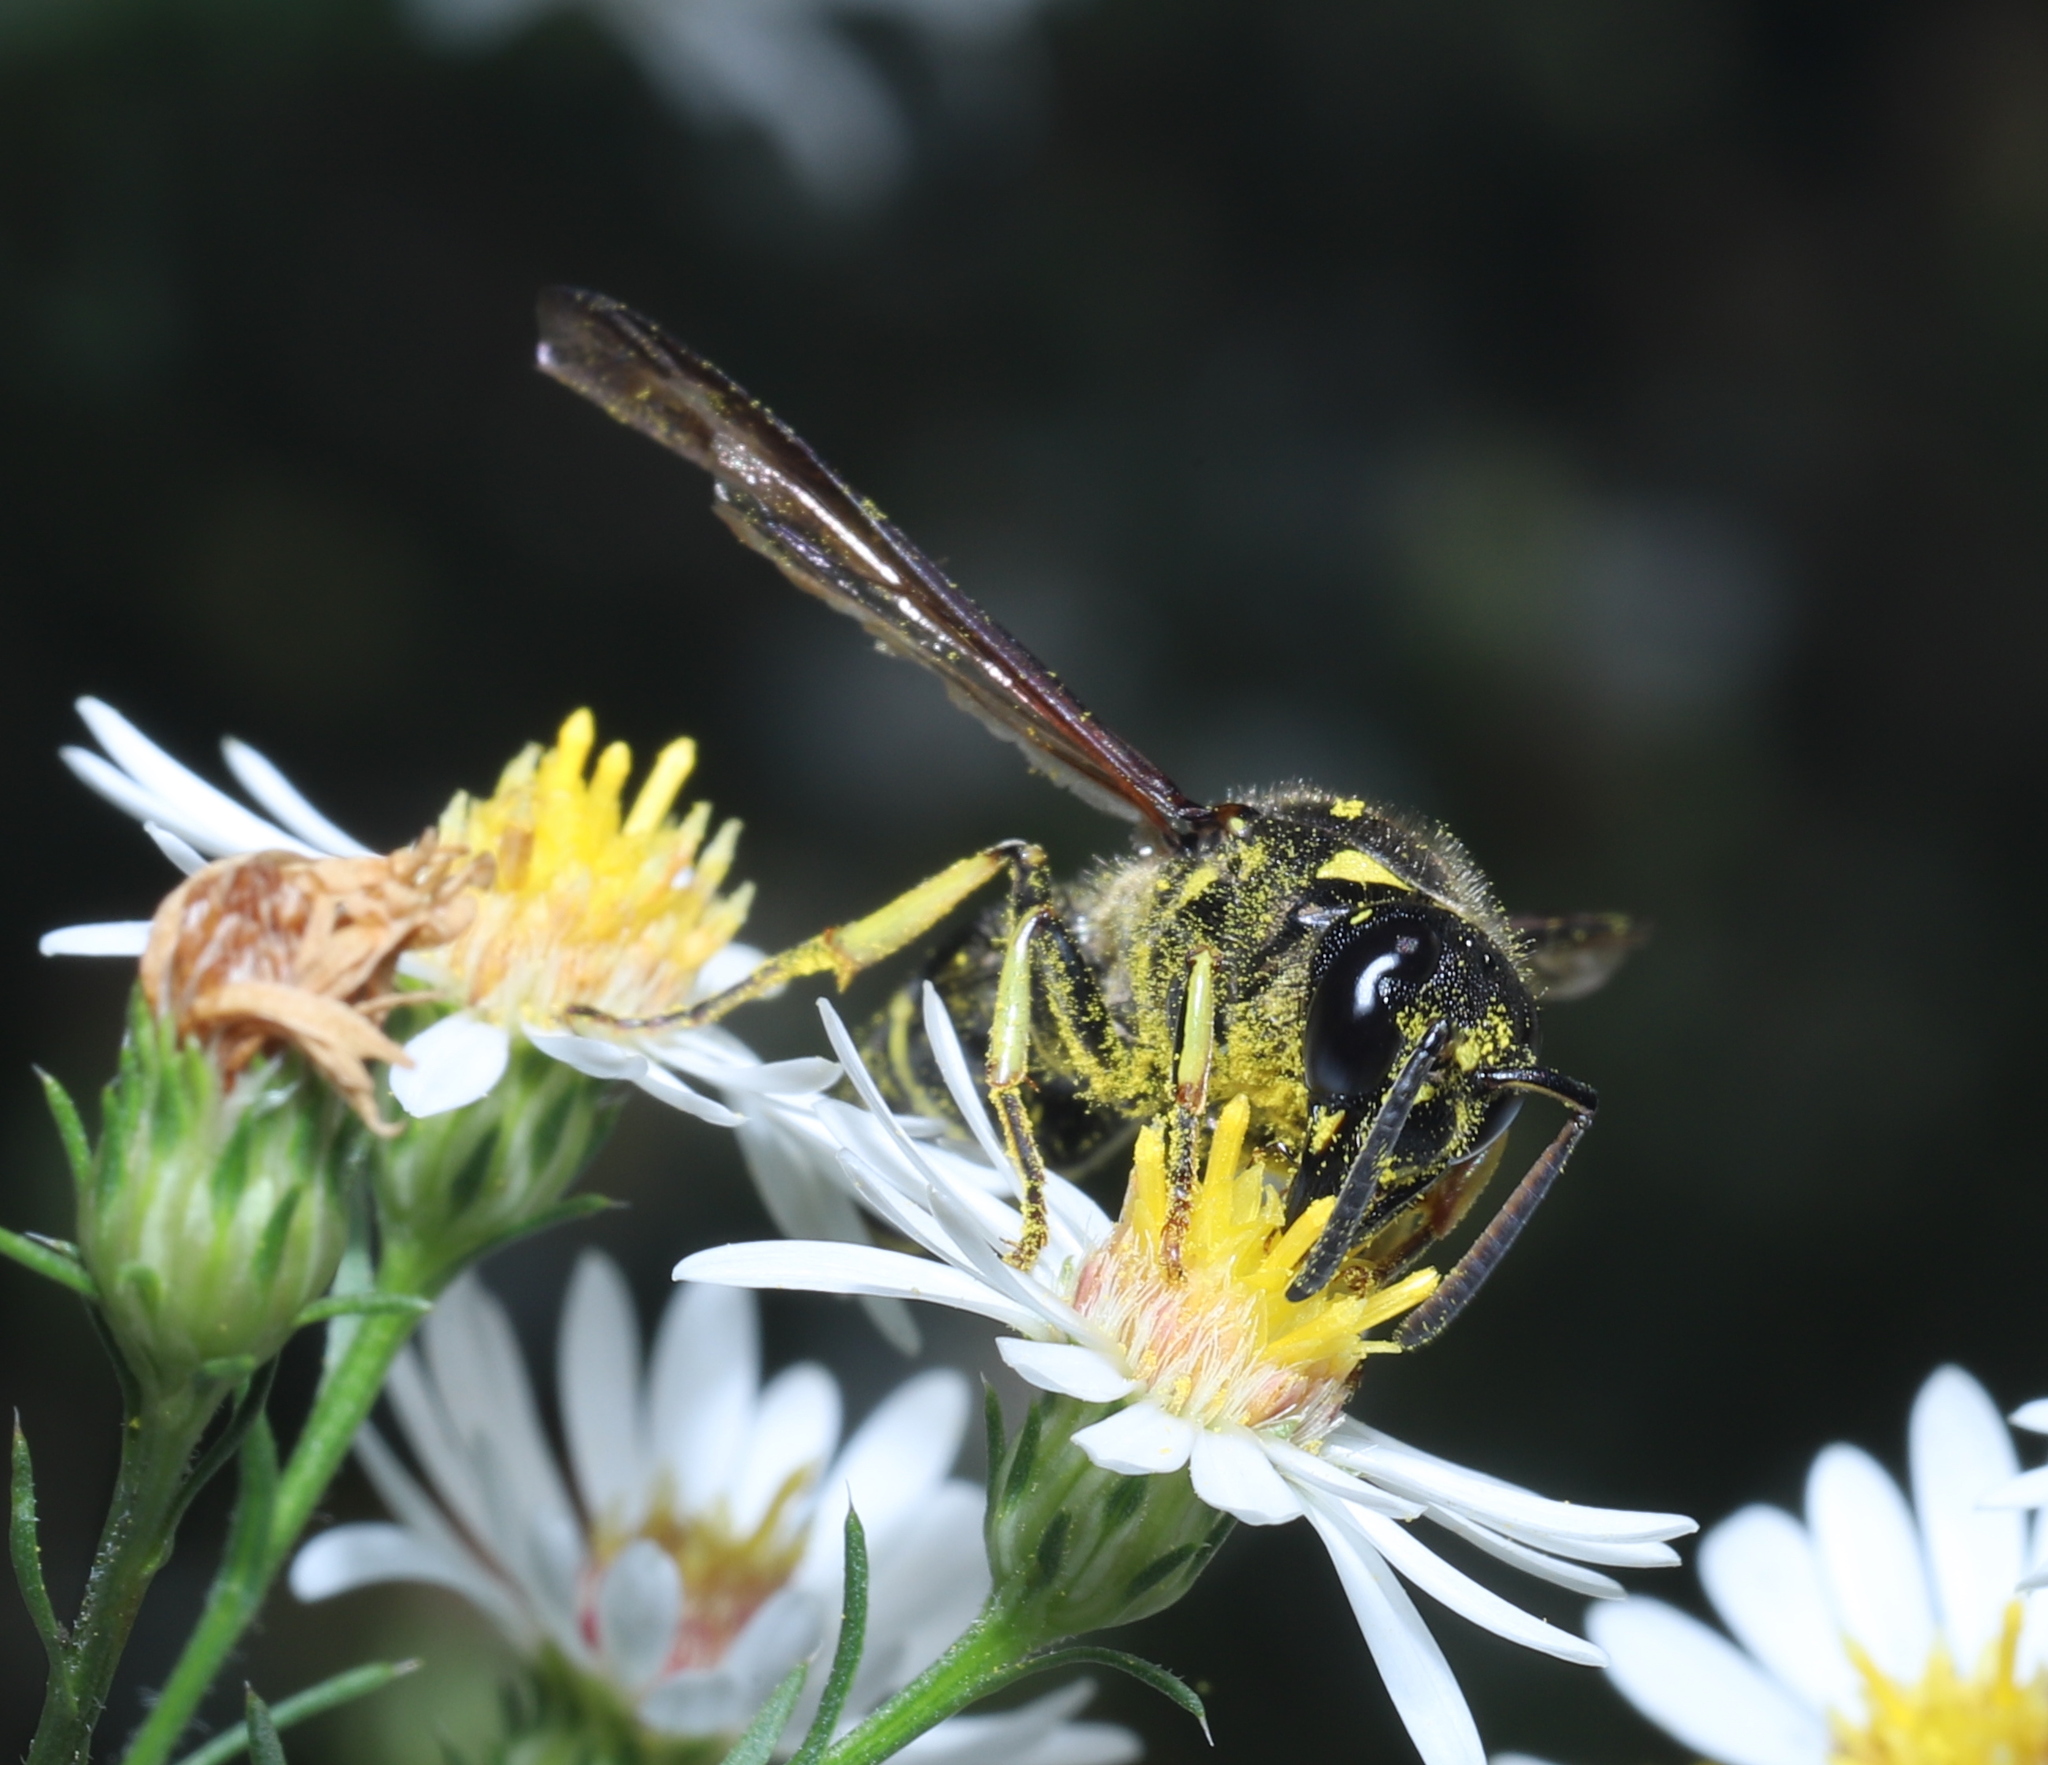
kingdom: Animalia
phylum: Arthropoda
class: Insecta
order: Hymenoptera
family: Vespidae
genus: Ancistrocerus
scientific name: Ancistrocerus
